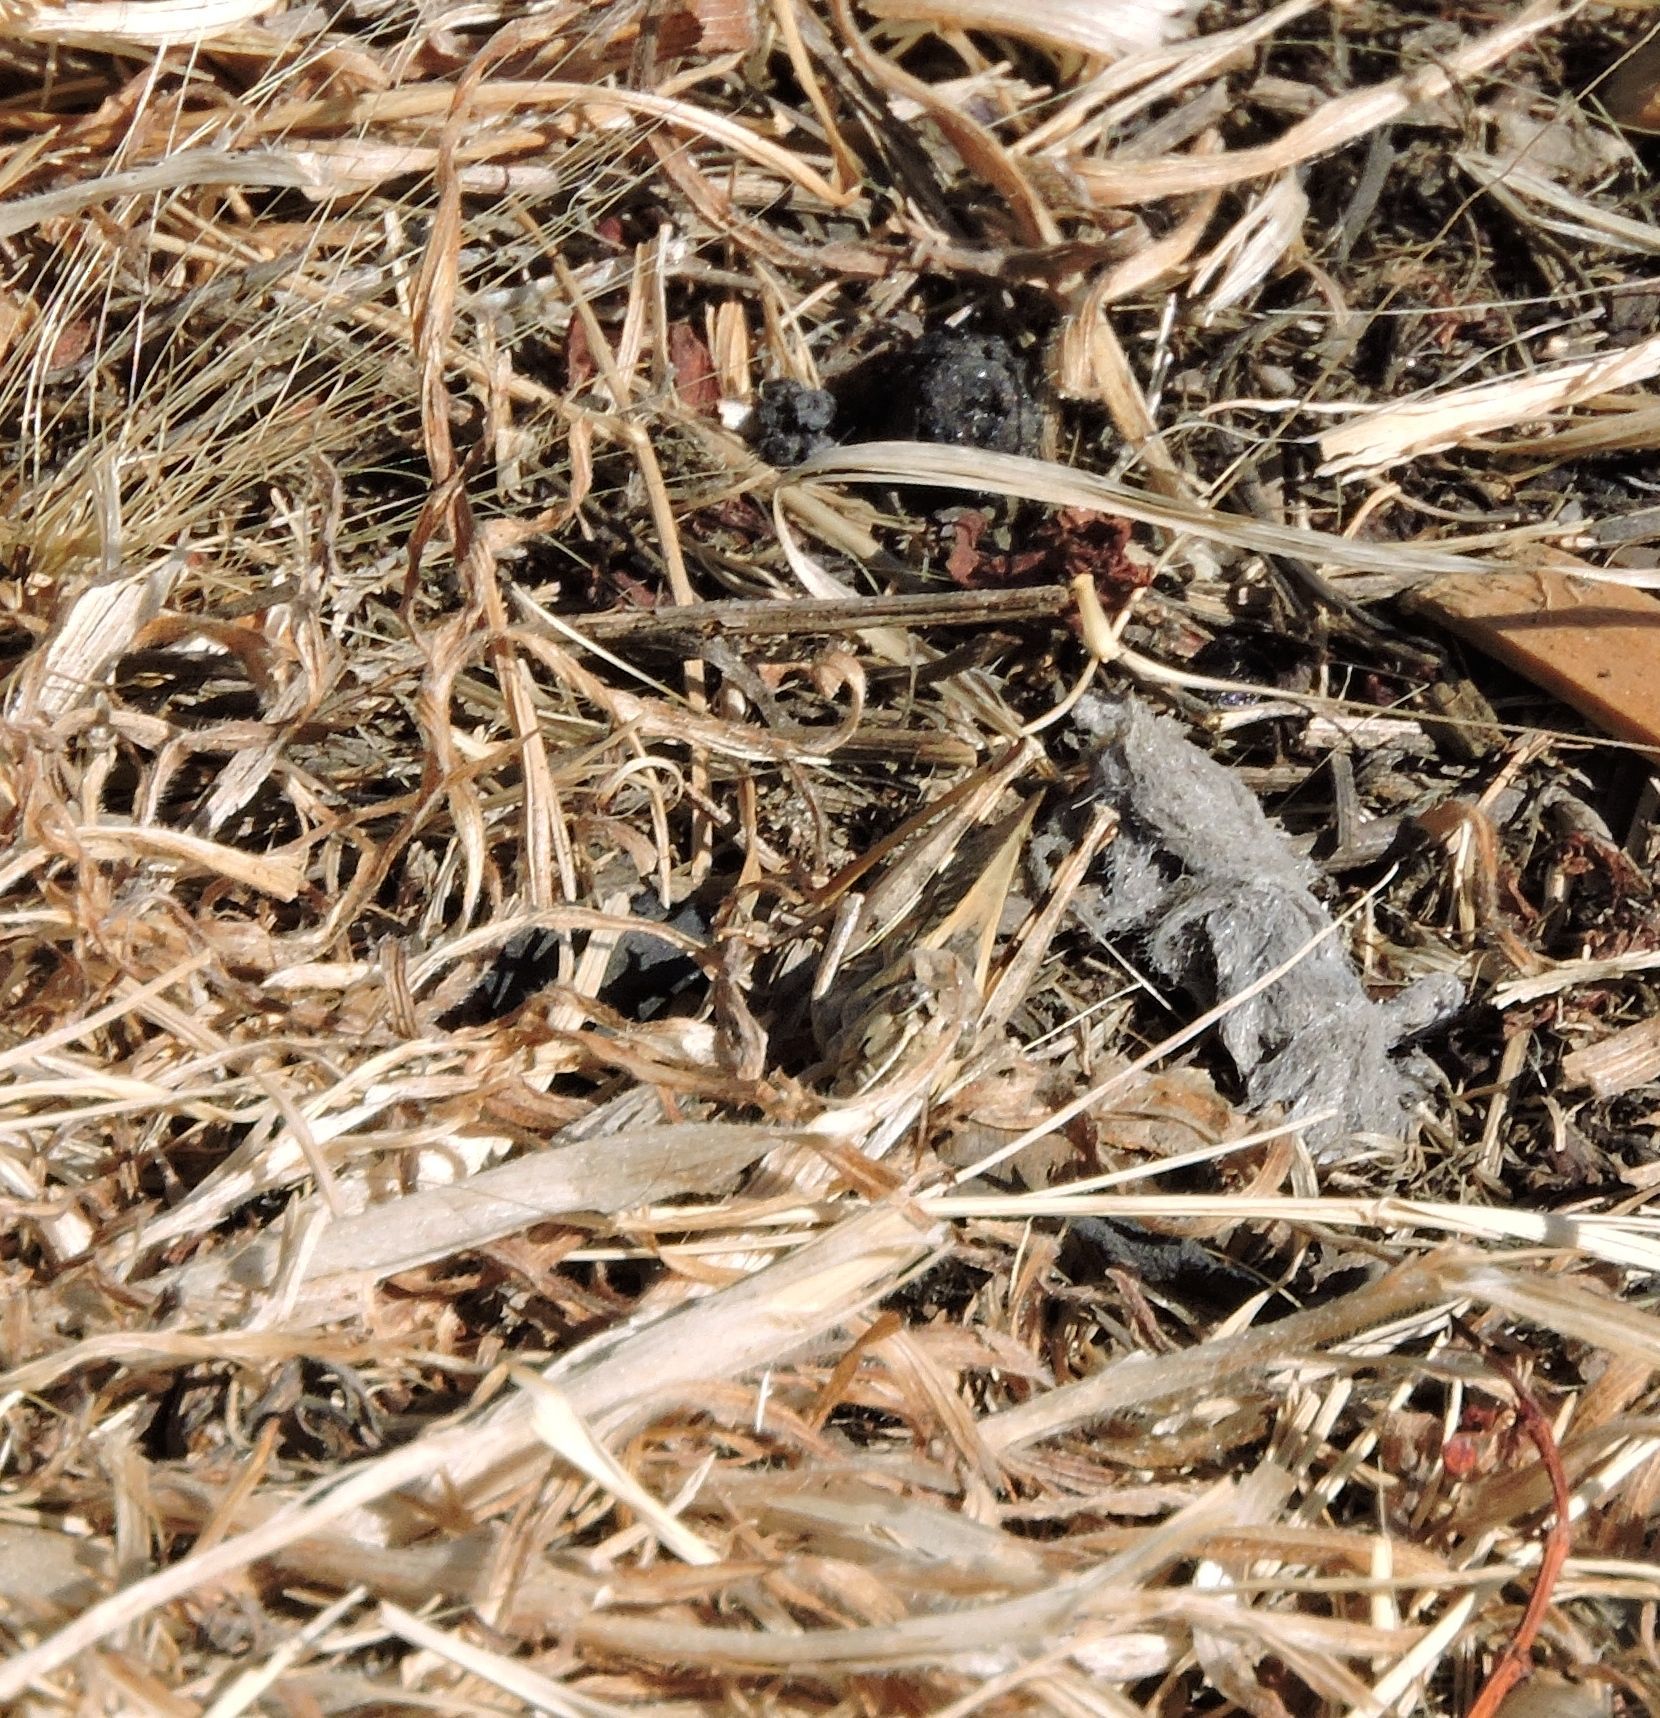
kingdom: Animalia
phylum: Arthropoda
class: Insecta
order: Orthoptera
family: Acrididae
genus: Camnula
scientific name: Camnula pellucida
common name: Clear-winged grasshopper
